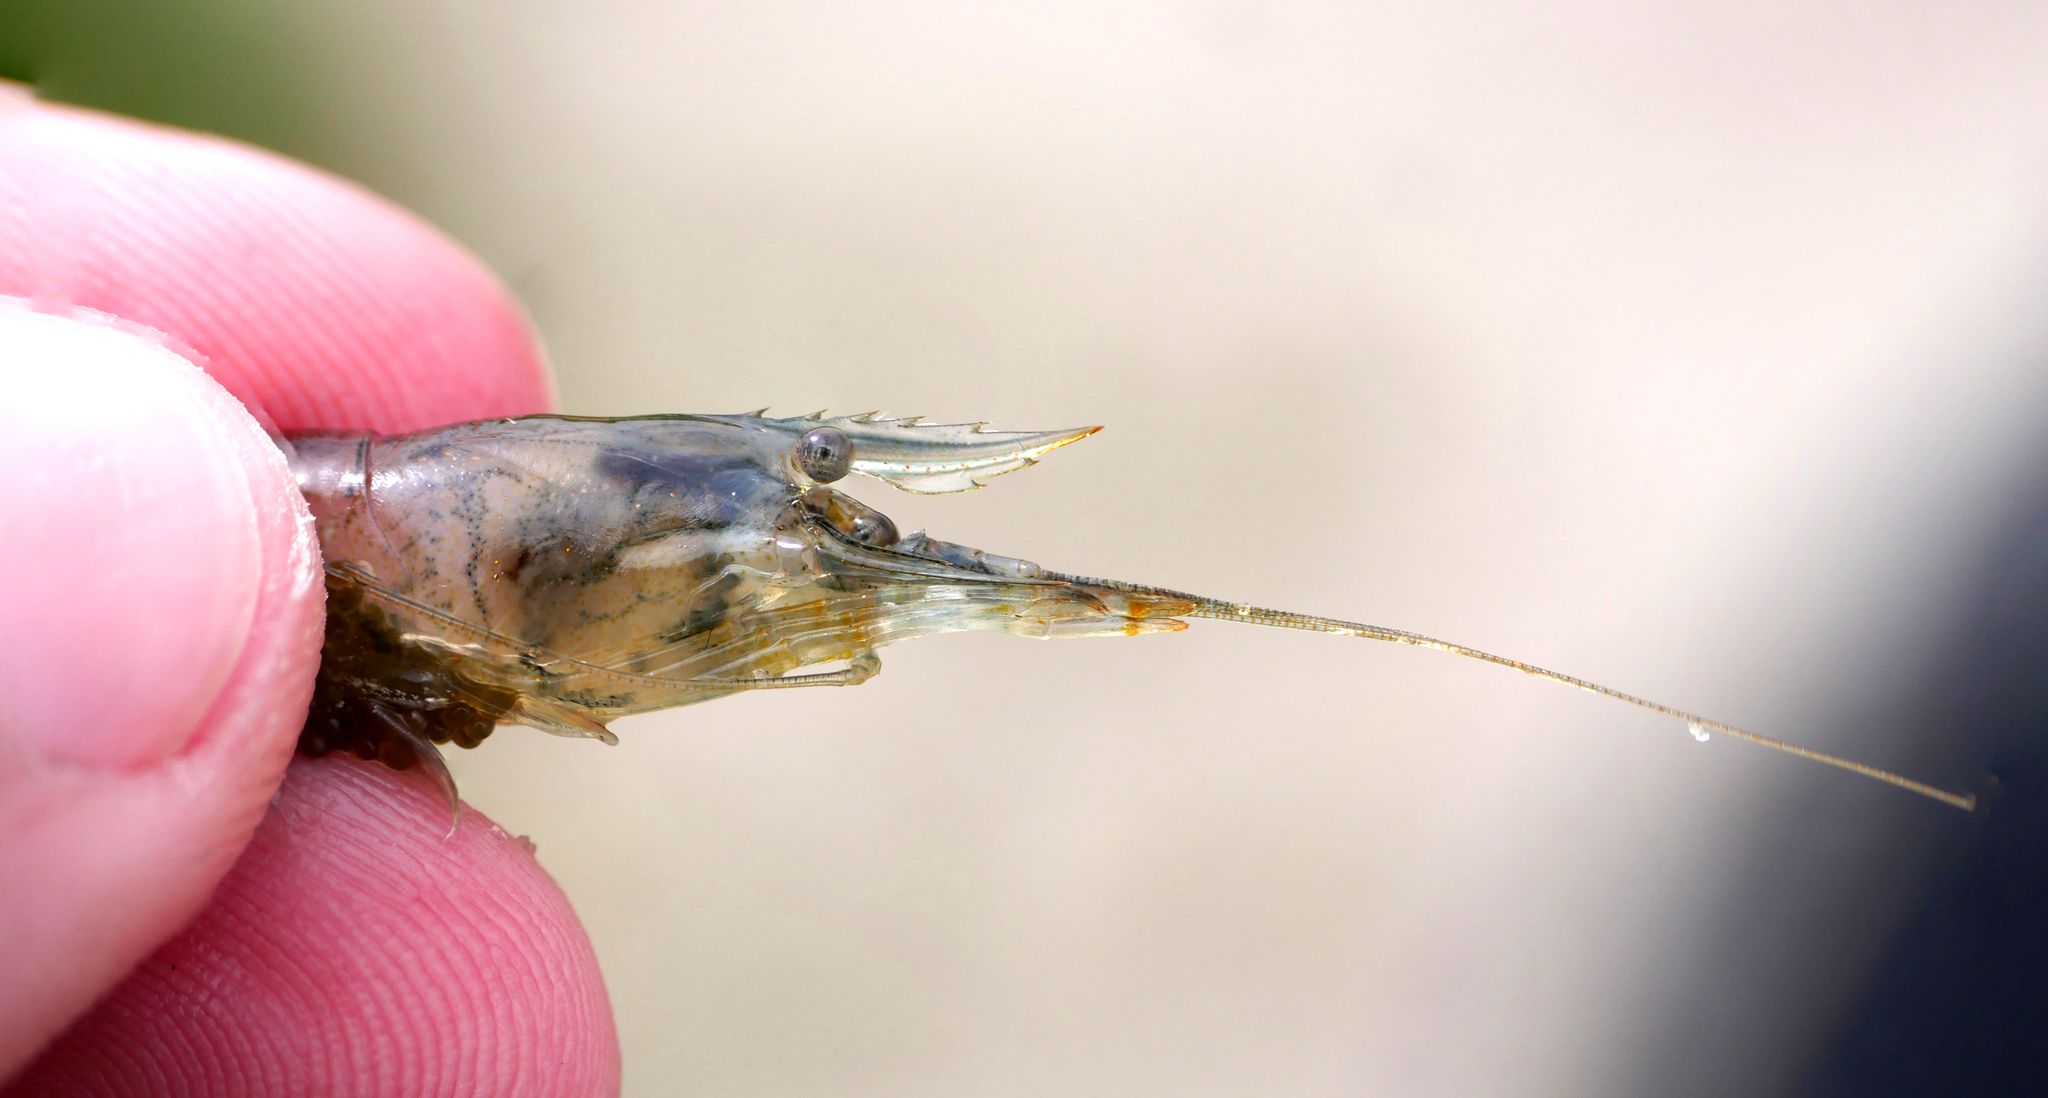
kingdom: Animalia
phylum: Arthropoda
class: Malacostraca
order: Decapoda
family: Palaemonidae
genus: Palaemon
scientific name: Palaemon varians
